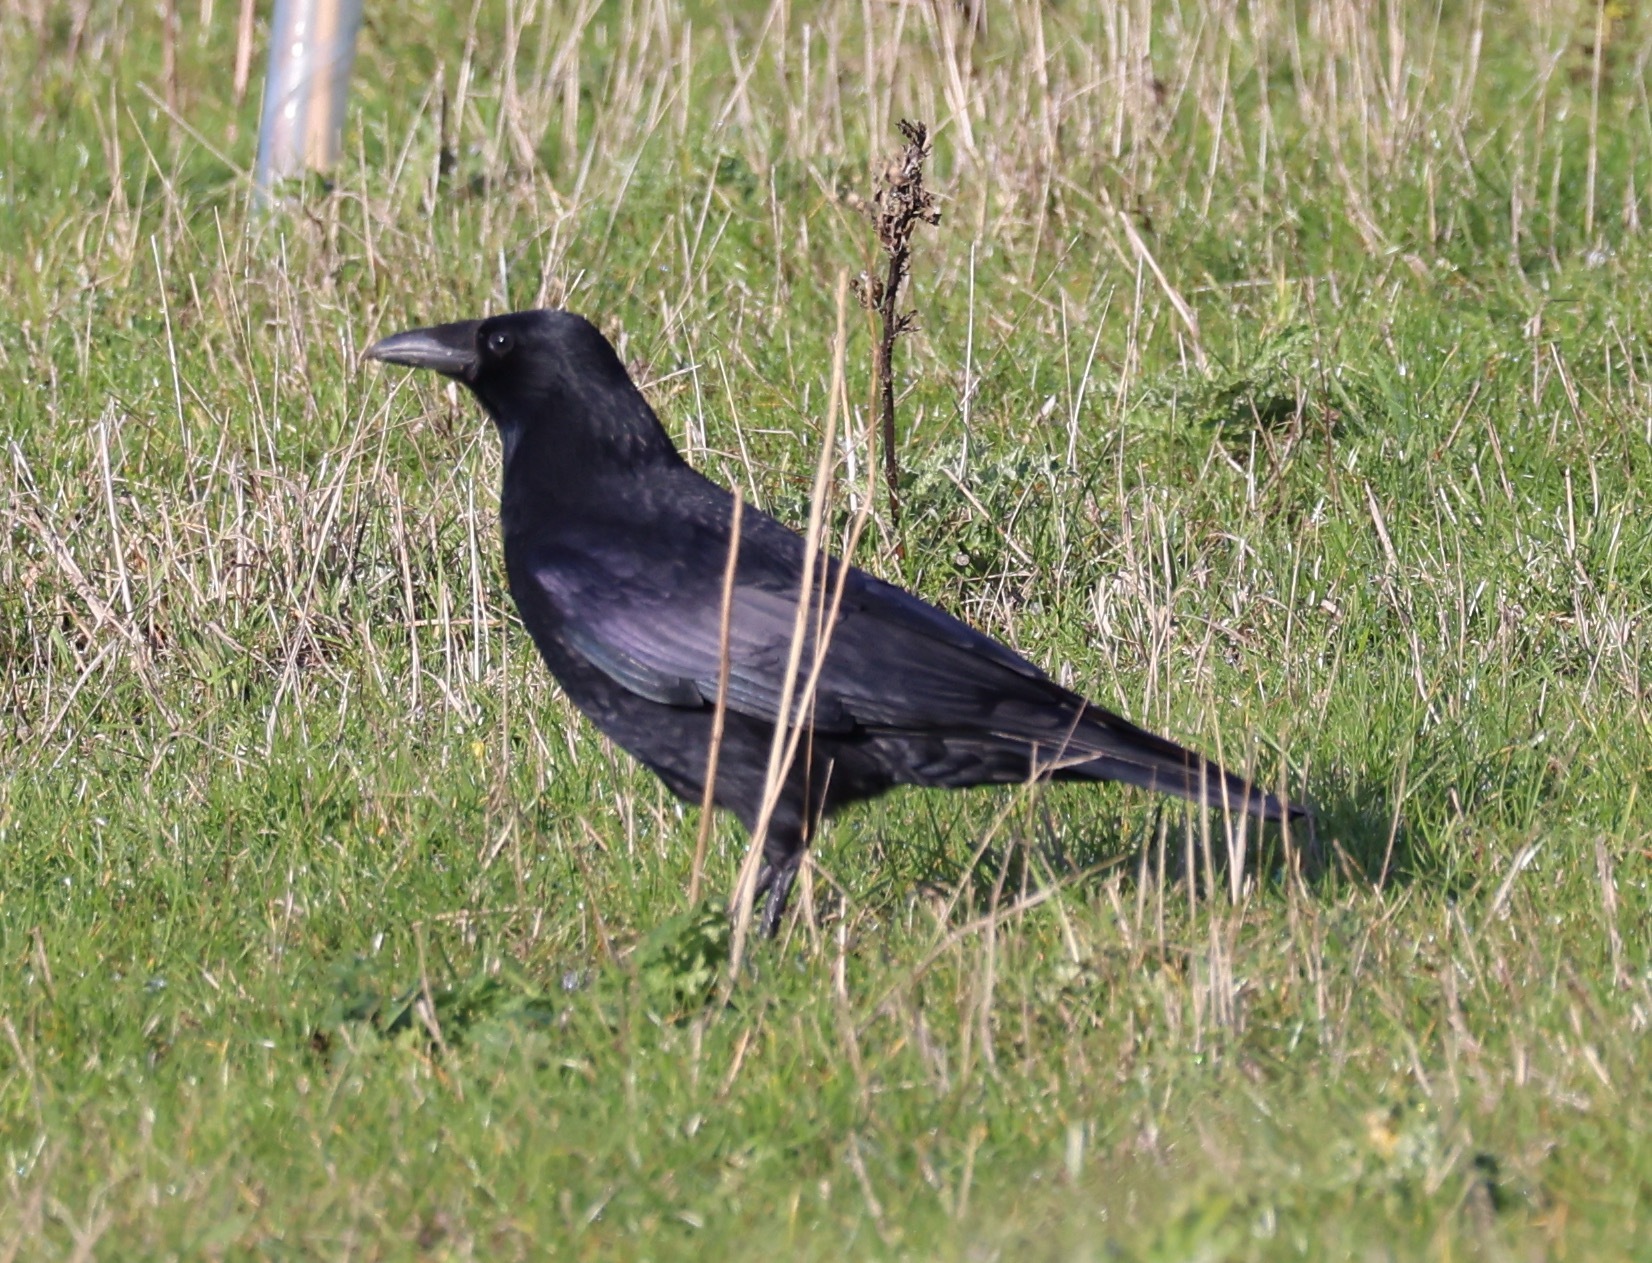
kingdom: Animalia
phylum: Chordata
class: Aves
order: Passeriformes
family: Corvidae
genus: Corvus
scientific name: Corvus corone
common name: Carrion crow
